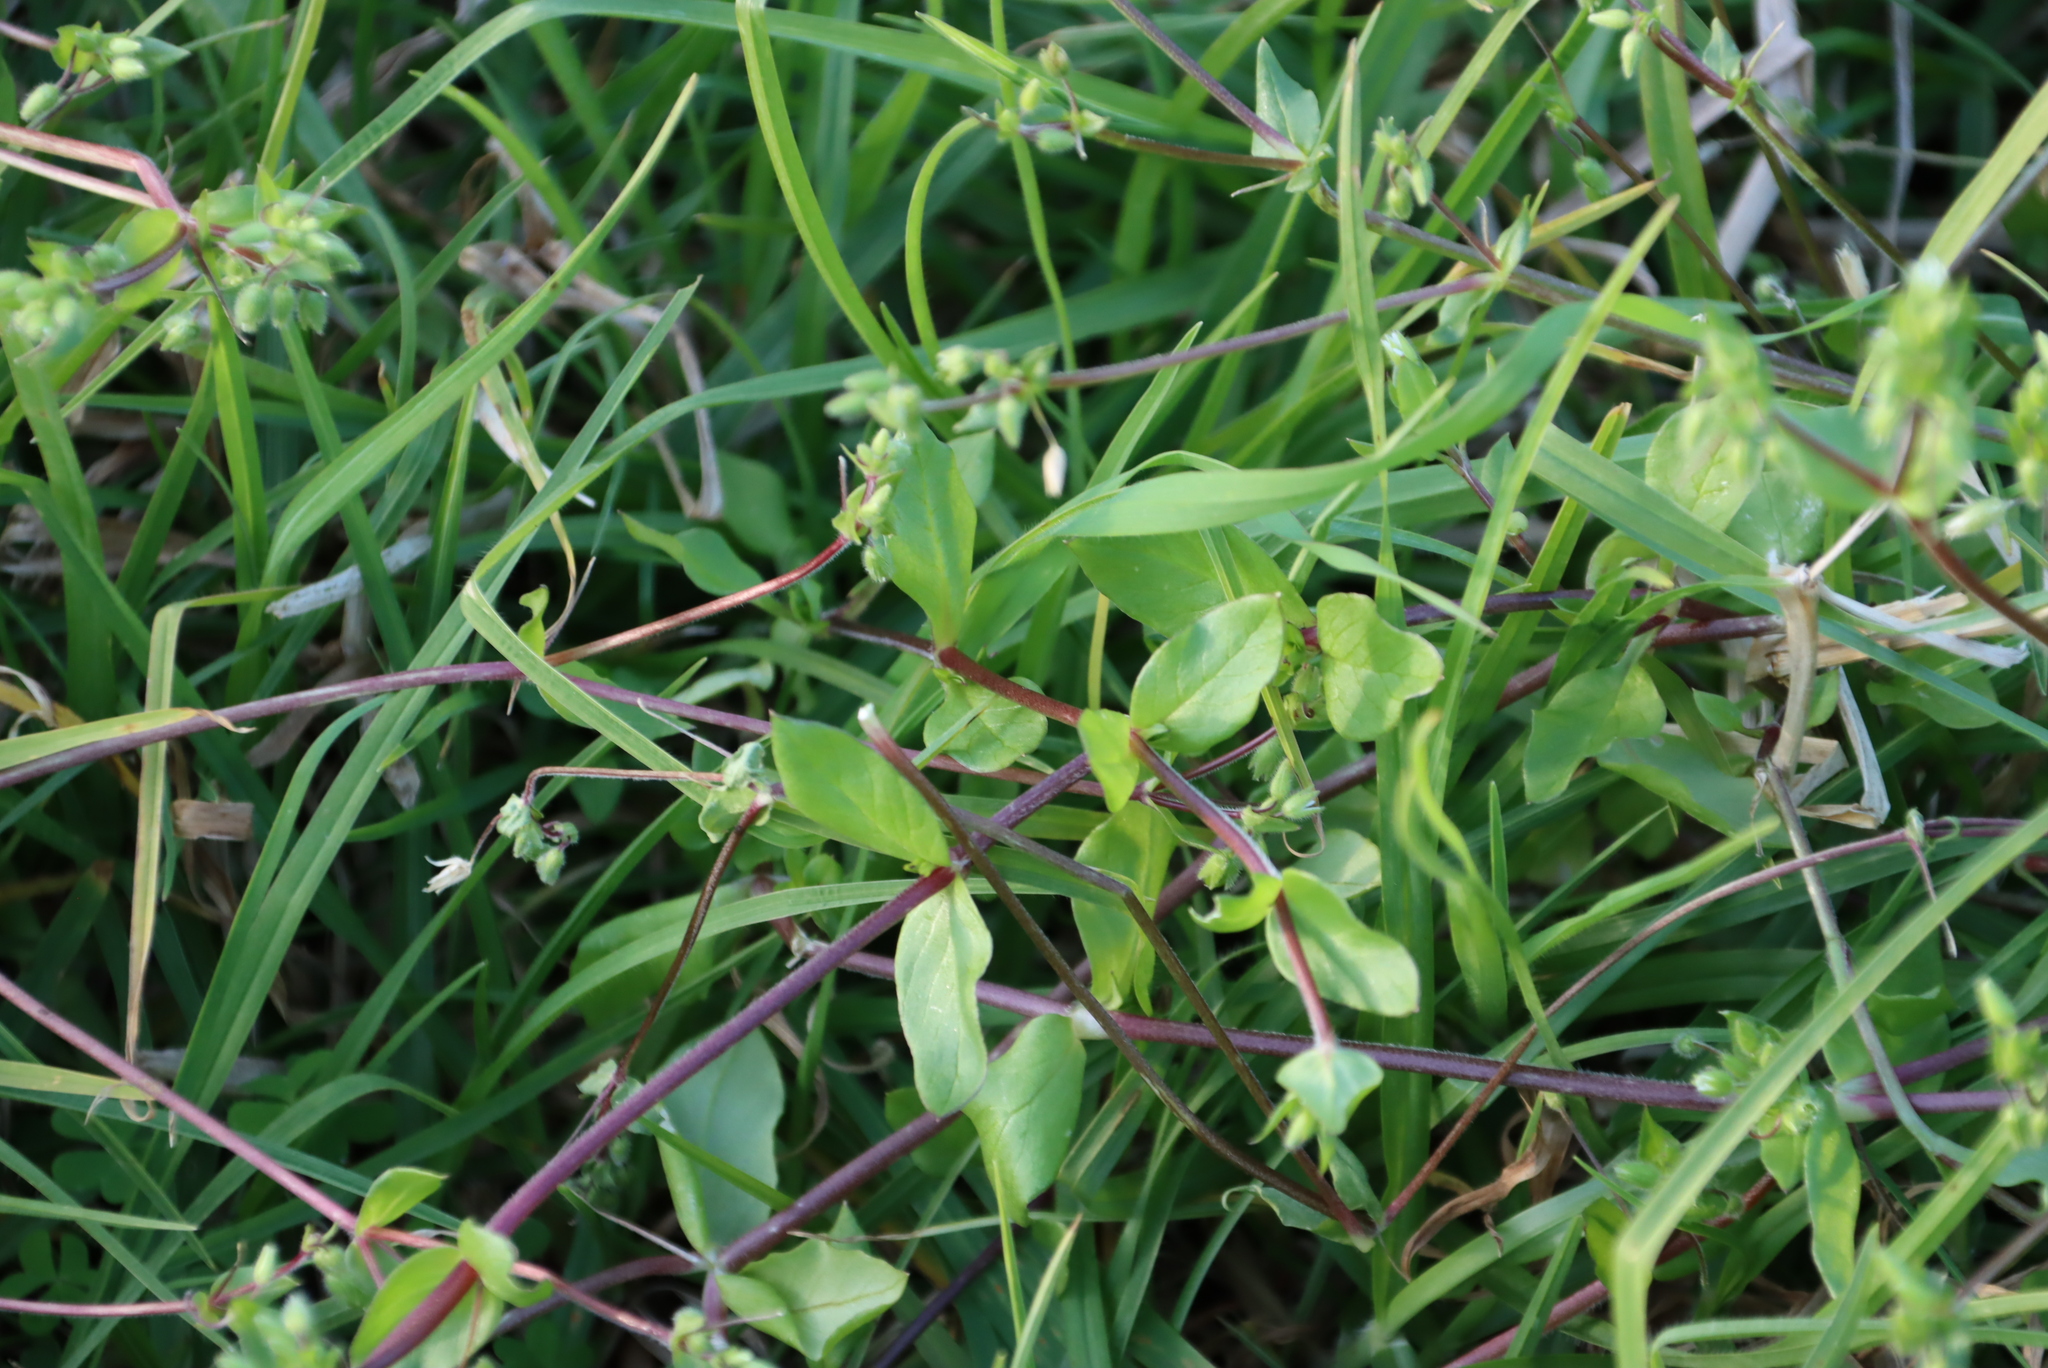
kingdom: Plantae
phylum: Tracheophyta
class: Magnoliopsida
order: Caryophyllales
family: Caryophyllaceae
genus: Stellaria
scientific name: Stellaria media
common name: Common chickweed
